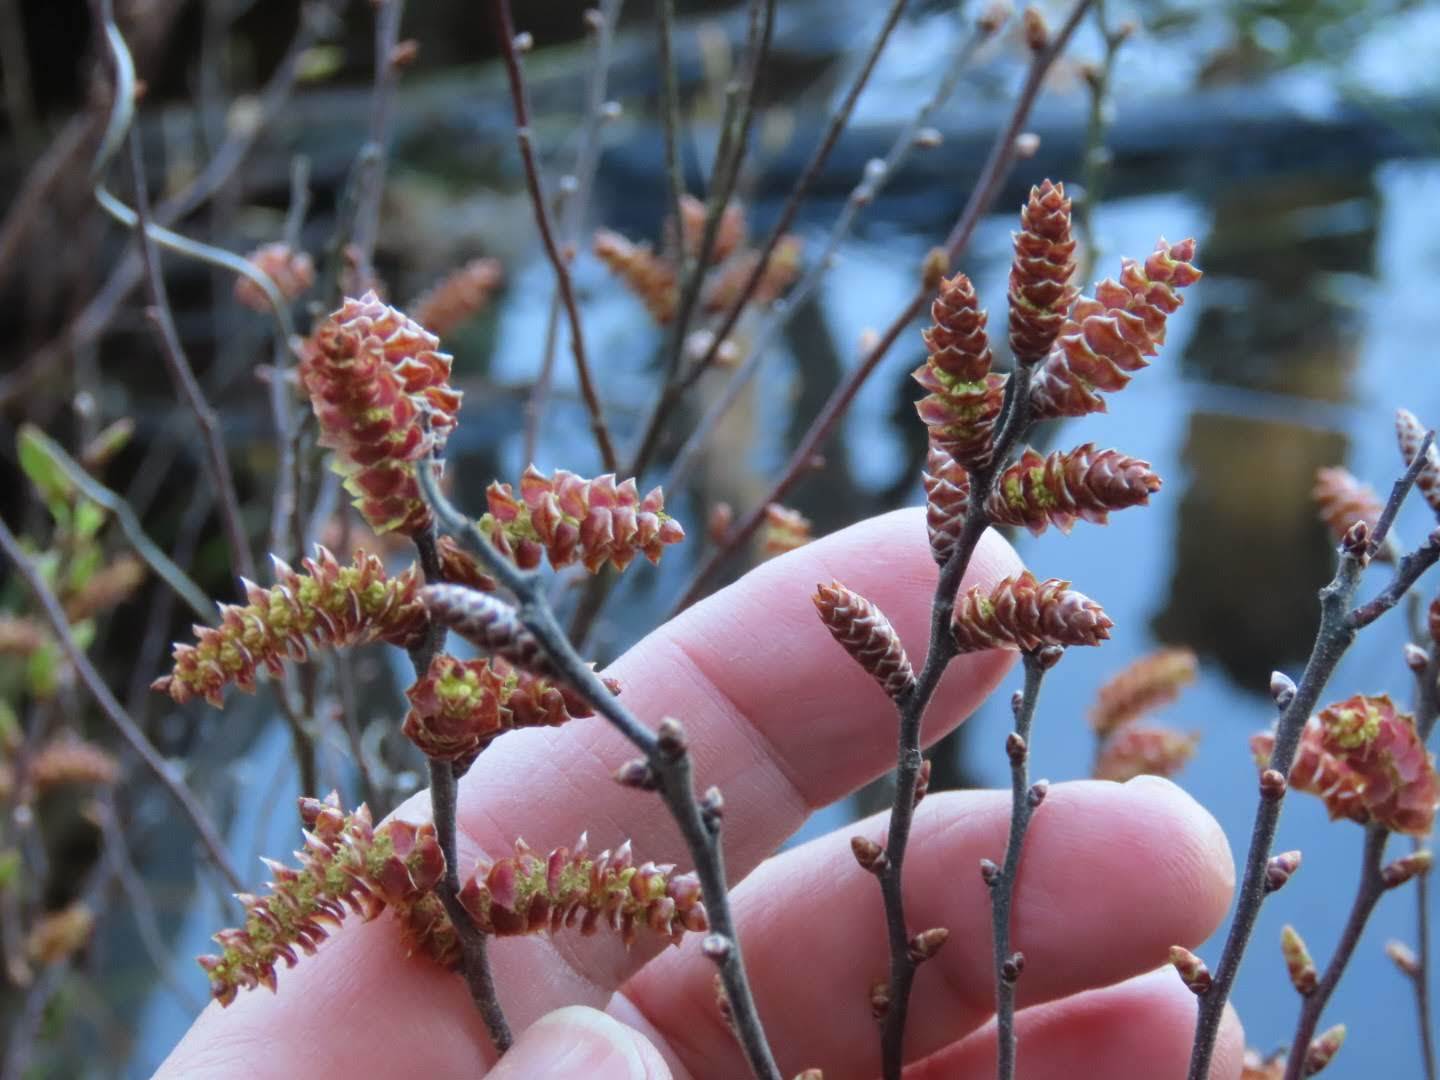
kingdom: Plantae
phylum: Tracheophyta
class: Magnoliopsida
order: Fagales
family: Myricaceae
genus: Myrica
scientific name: Myrica gale
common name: Sweet gale
